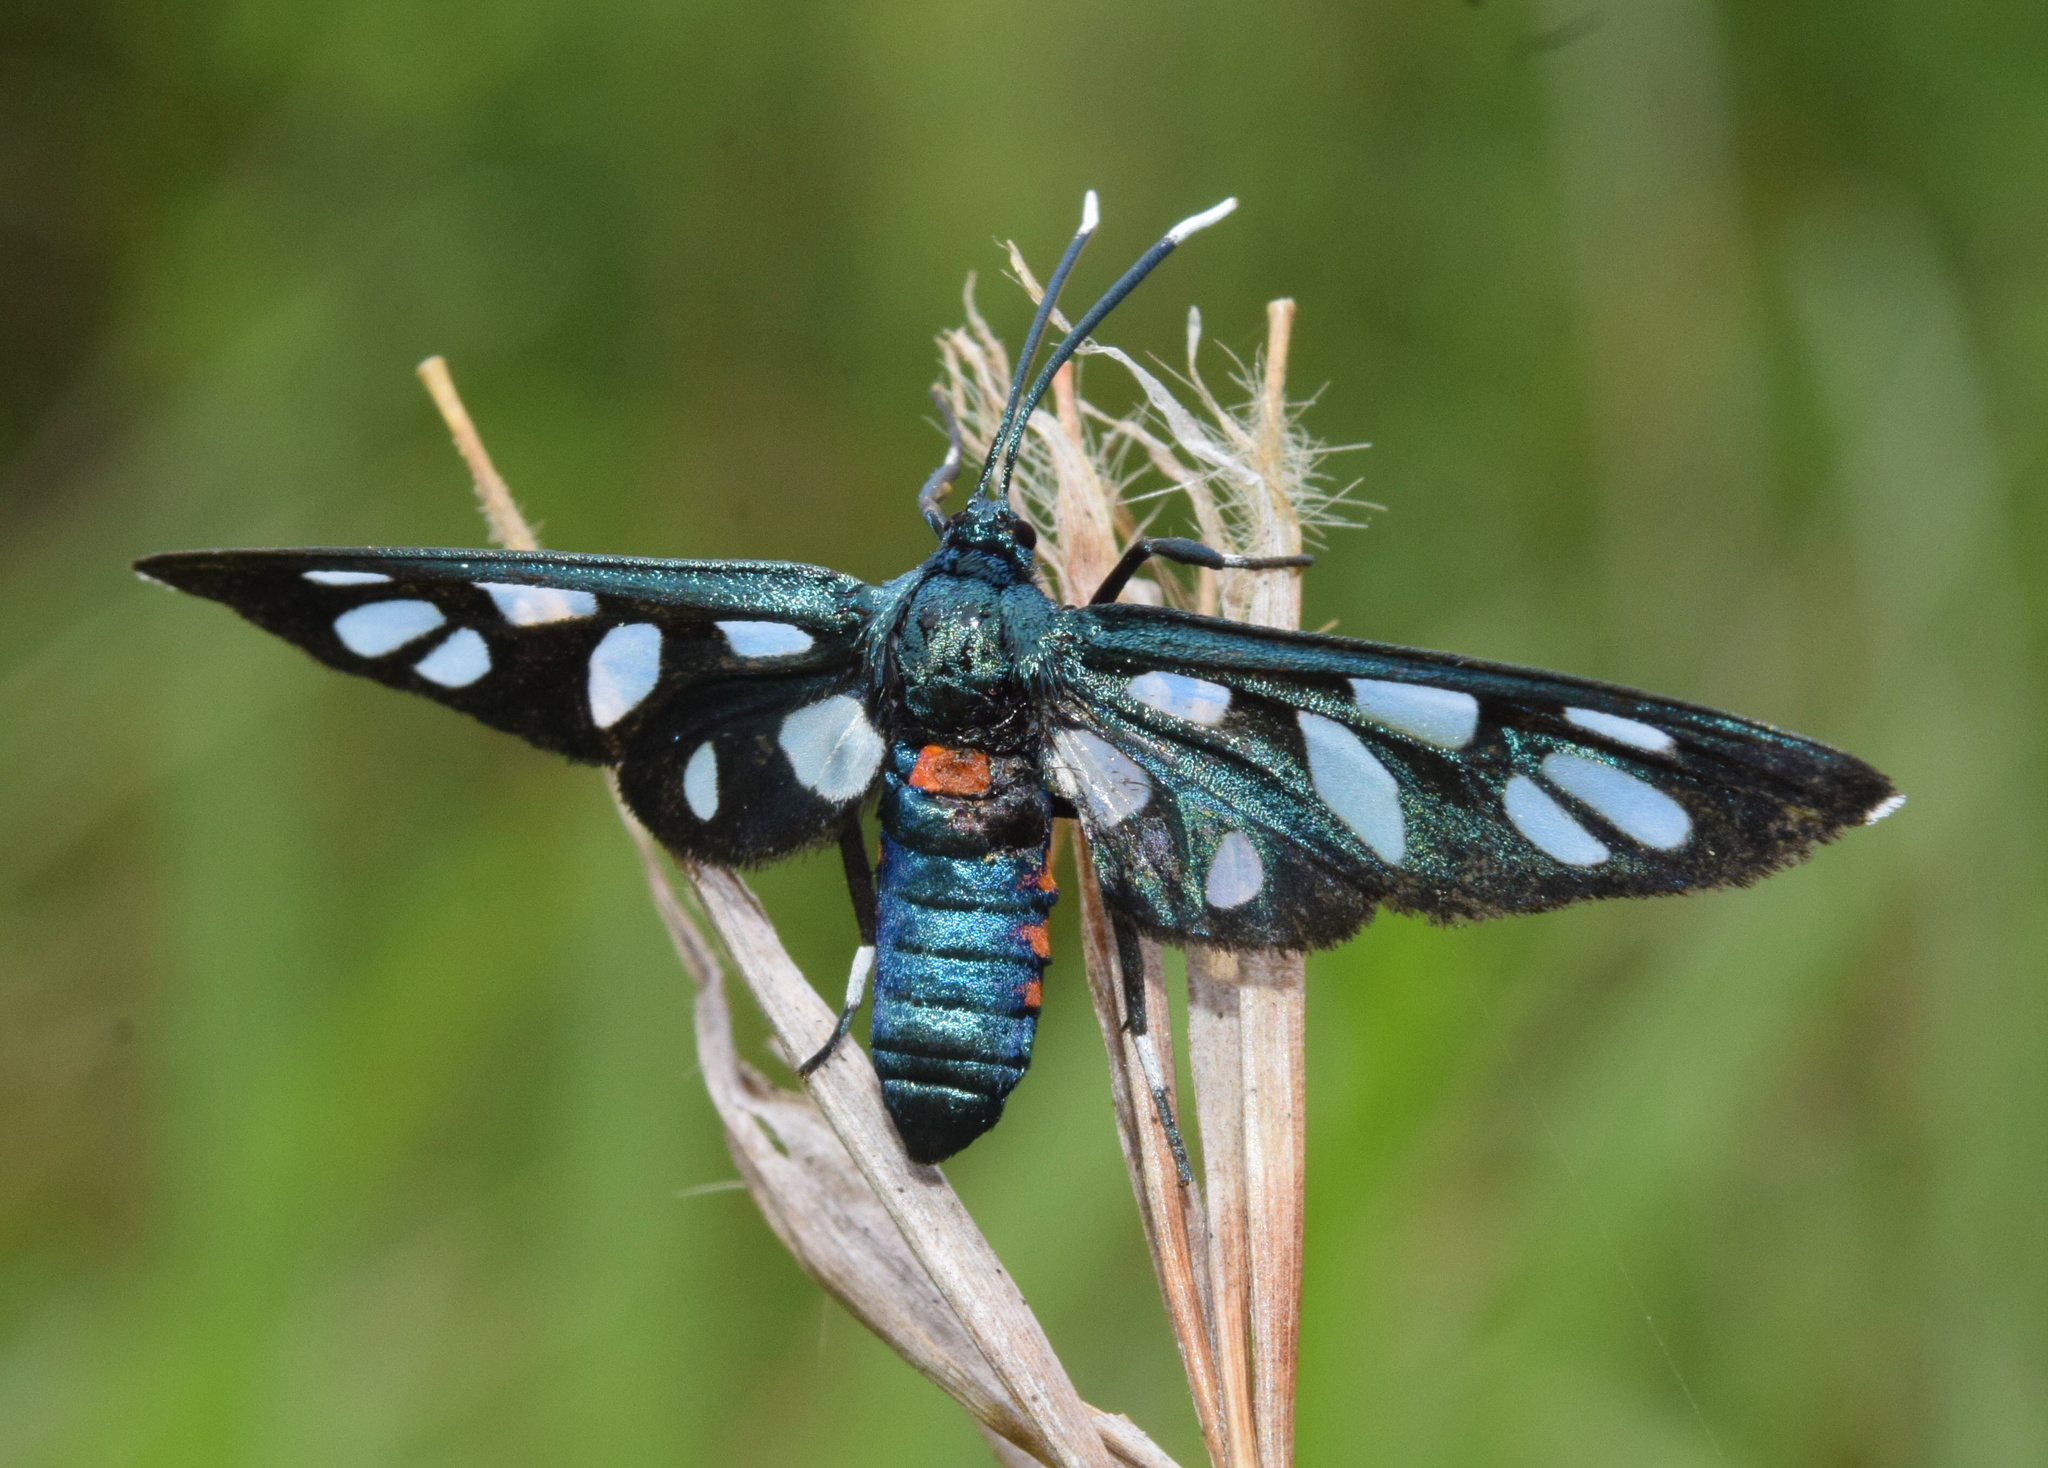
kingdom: Animalia
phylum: Arthropoda
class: Insecta
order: Lepidoptera
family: Erebidae
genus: Amata
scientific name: Amata kuhlweini
